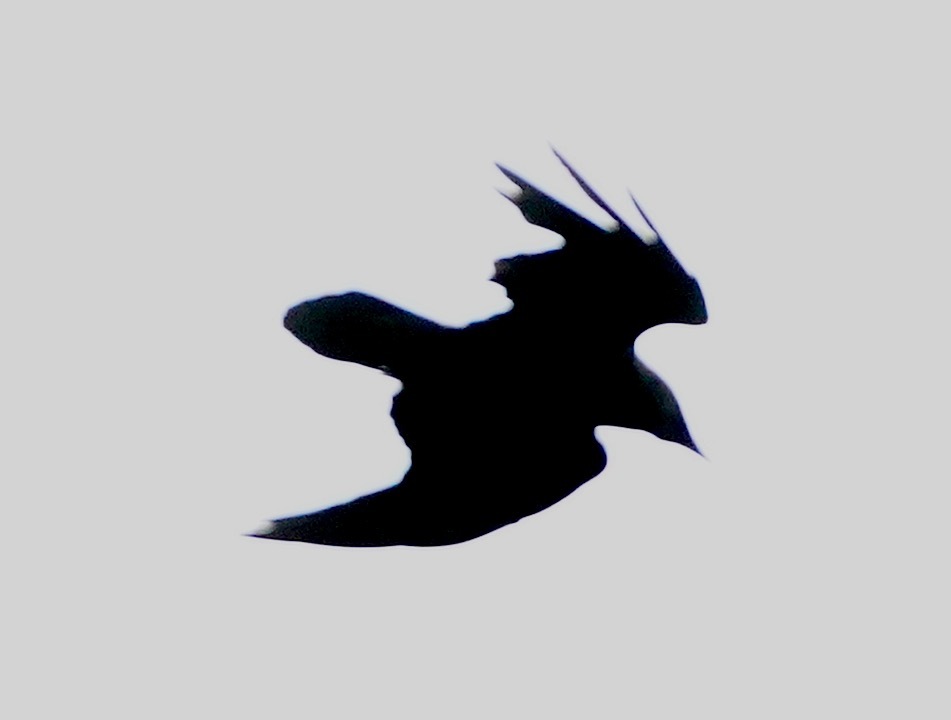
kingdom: Animalia
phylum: Chordata
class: Aves
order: Passeriformes
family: Corvidae
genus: Corvus
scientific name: Corvus corax
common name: Common raven
